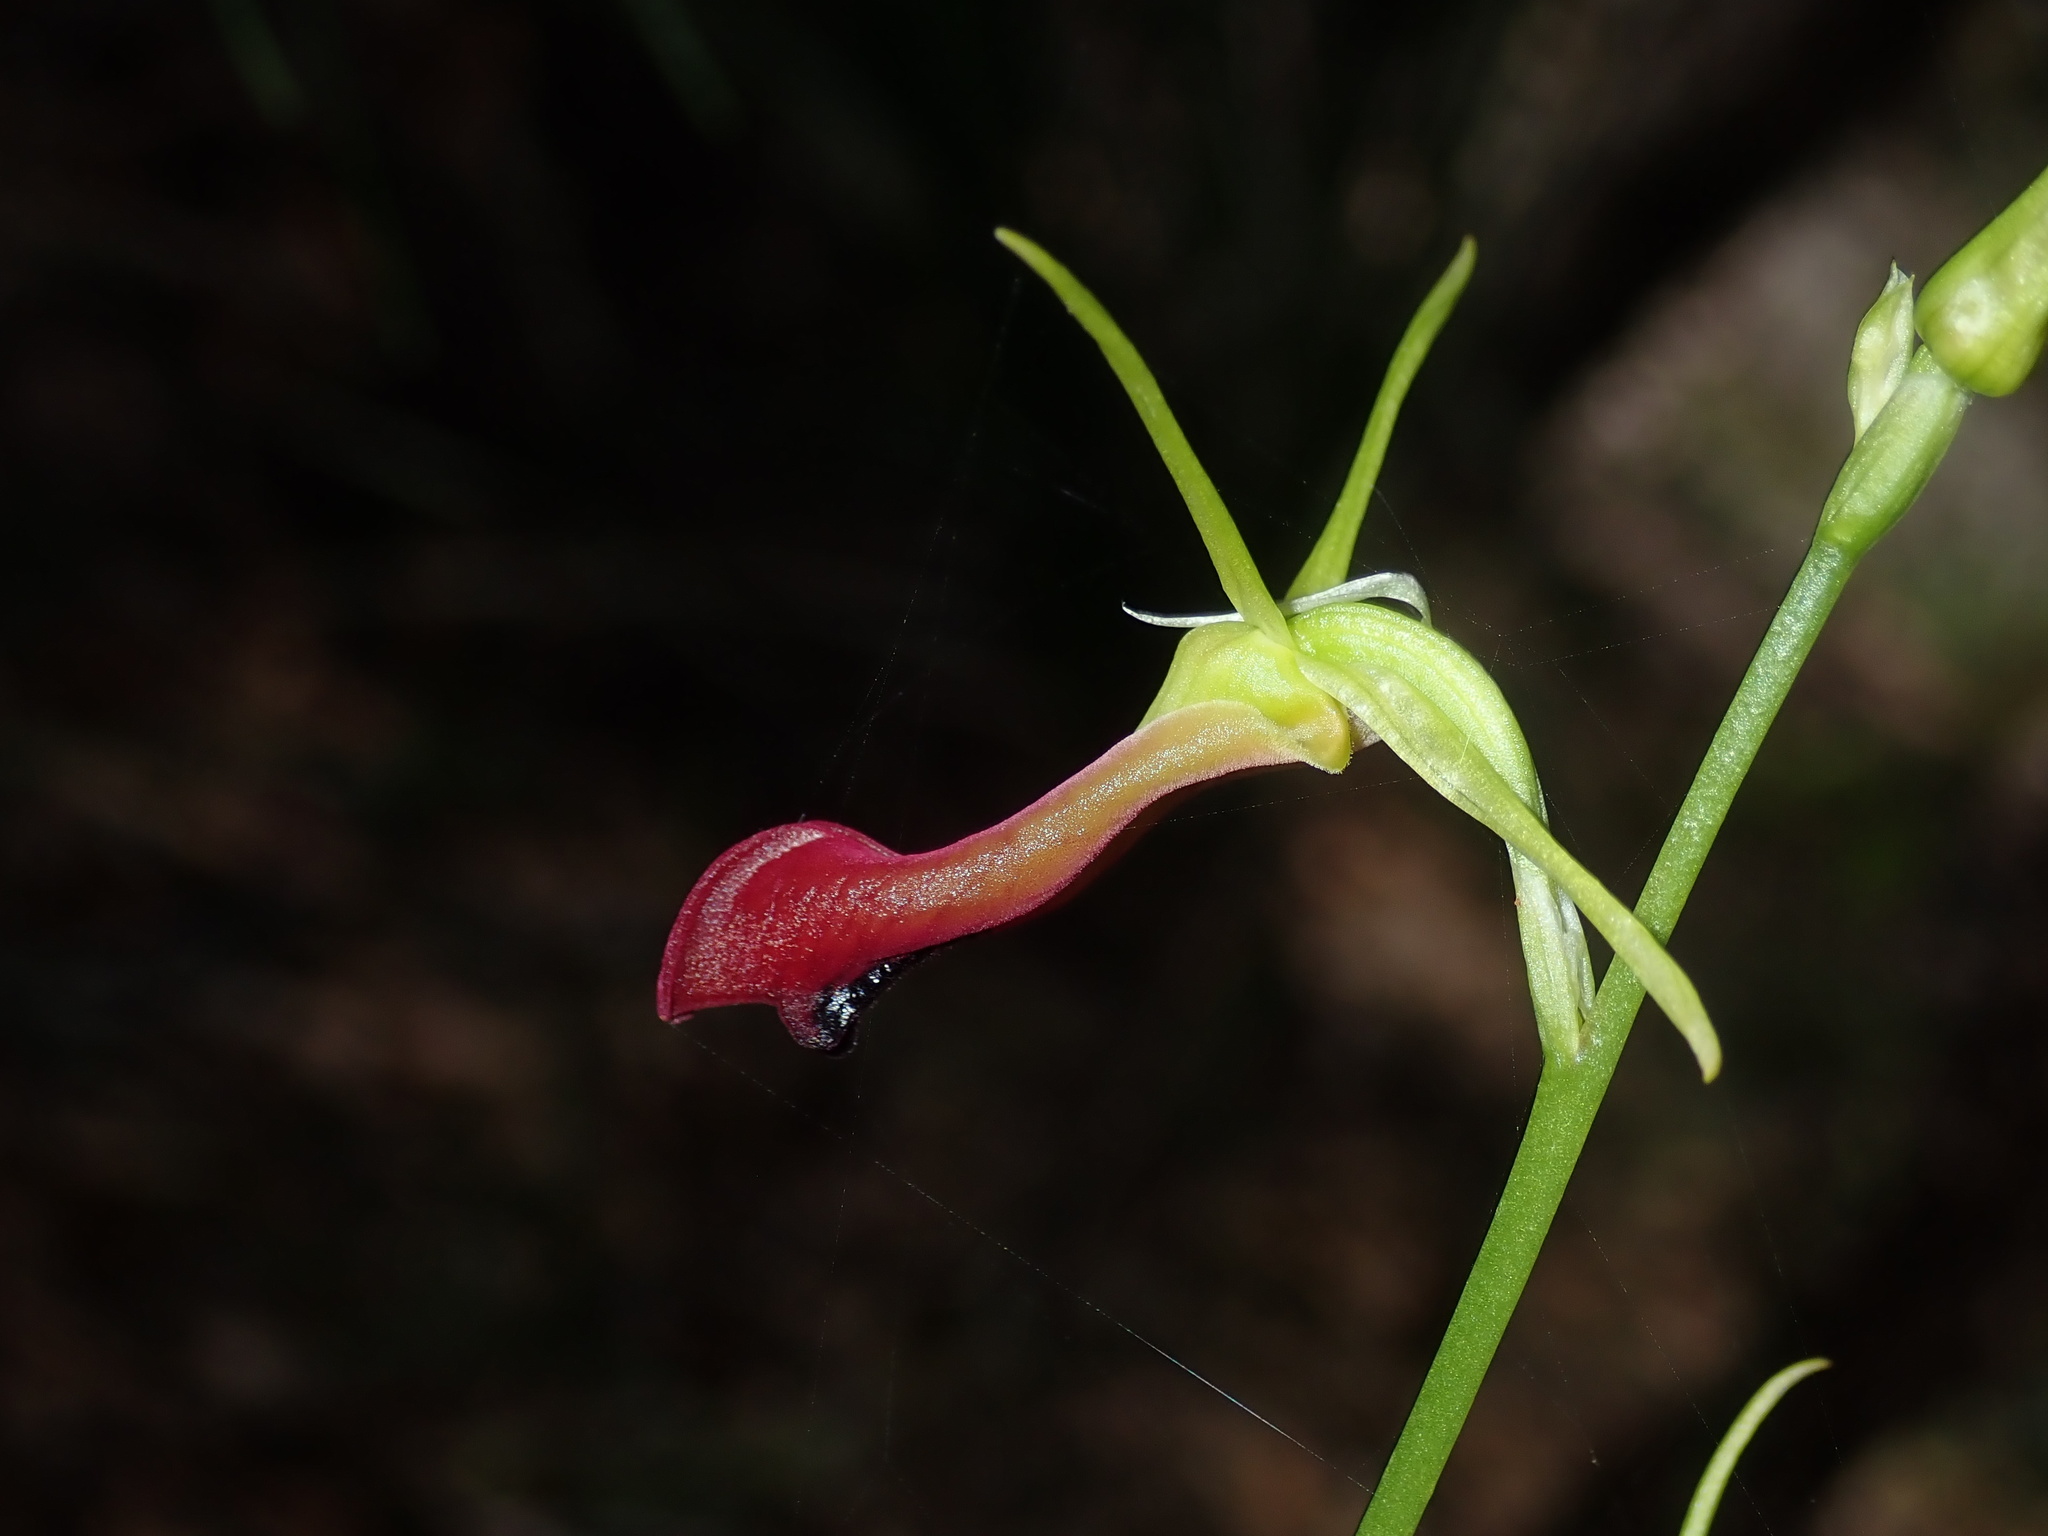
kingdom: Plantae
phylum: Tracheophyta
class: Liliopsida
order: Asparagales
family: Orchidaceae
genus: Cryptostylis
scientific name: Cryptostylis subulata
